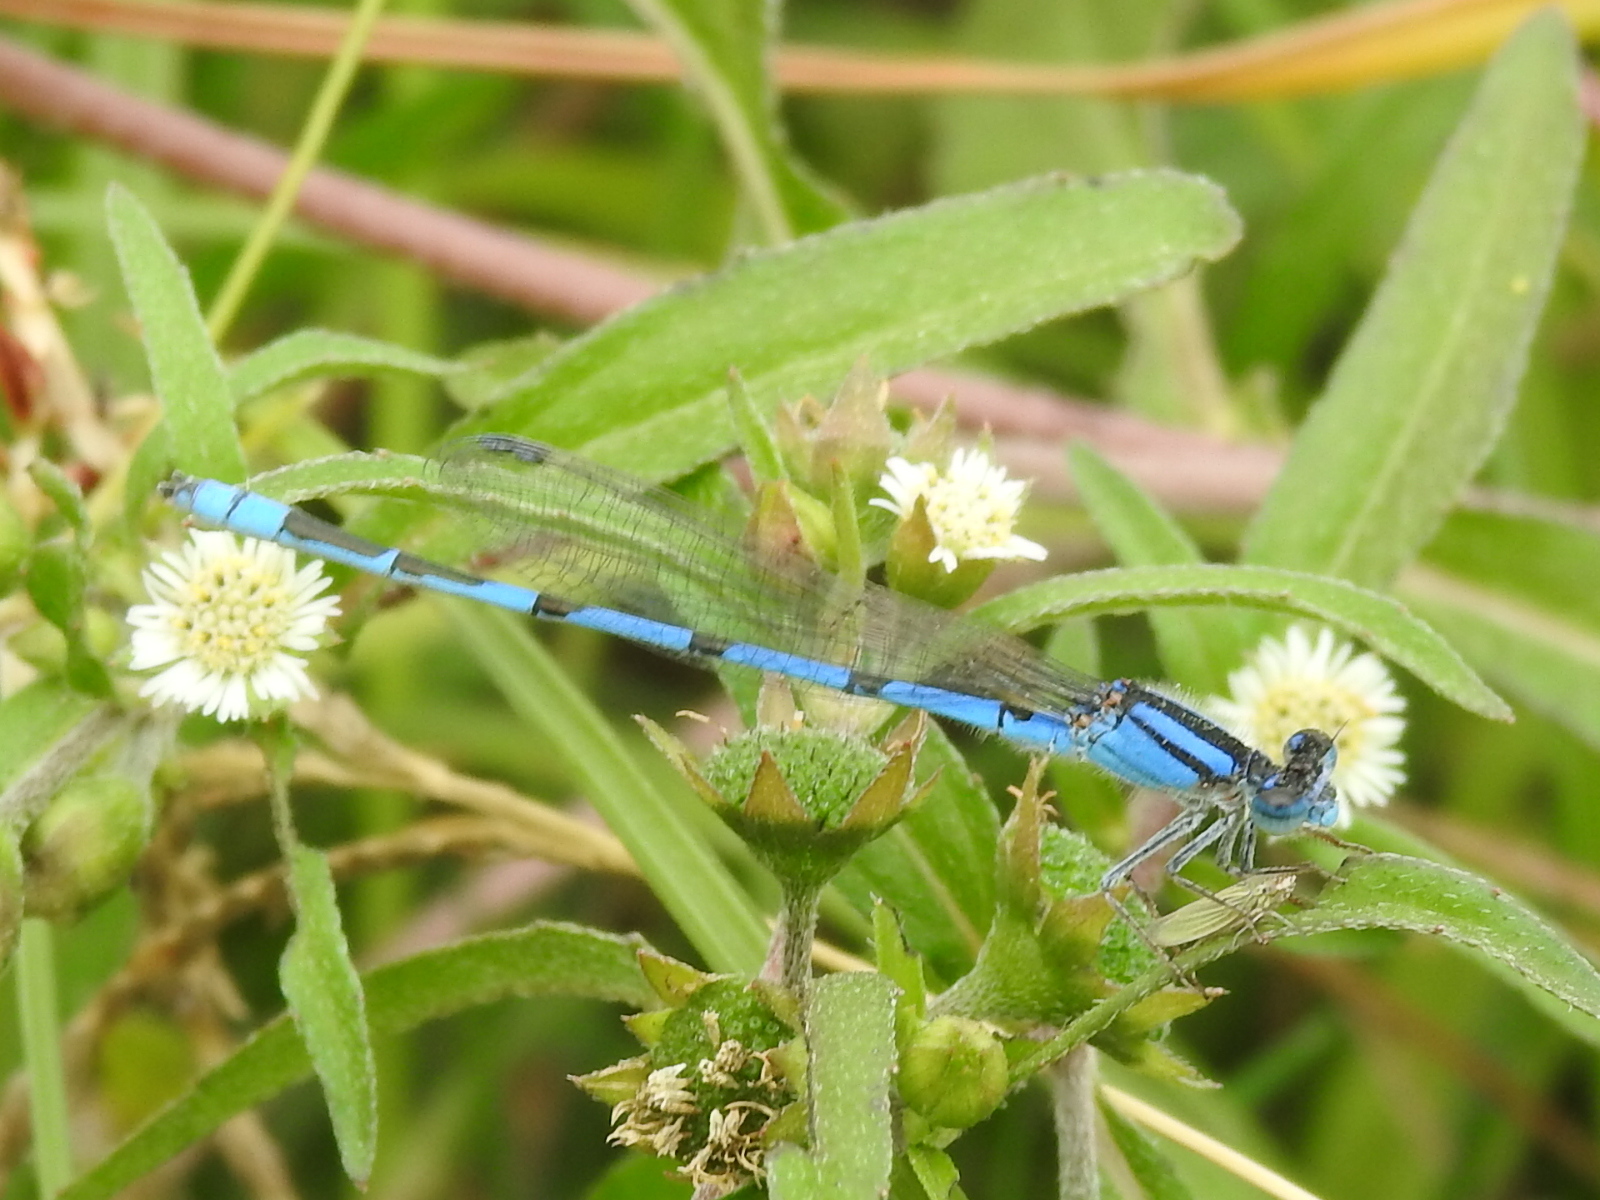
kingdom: Animalia
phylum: Arthropoda
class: Insecta
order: Odonata
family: Coenagrionidae
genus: Enallagma
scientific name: Enallagma civile
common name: Damselfly
